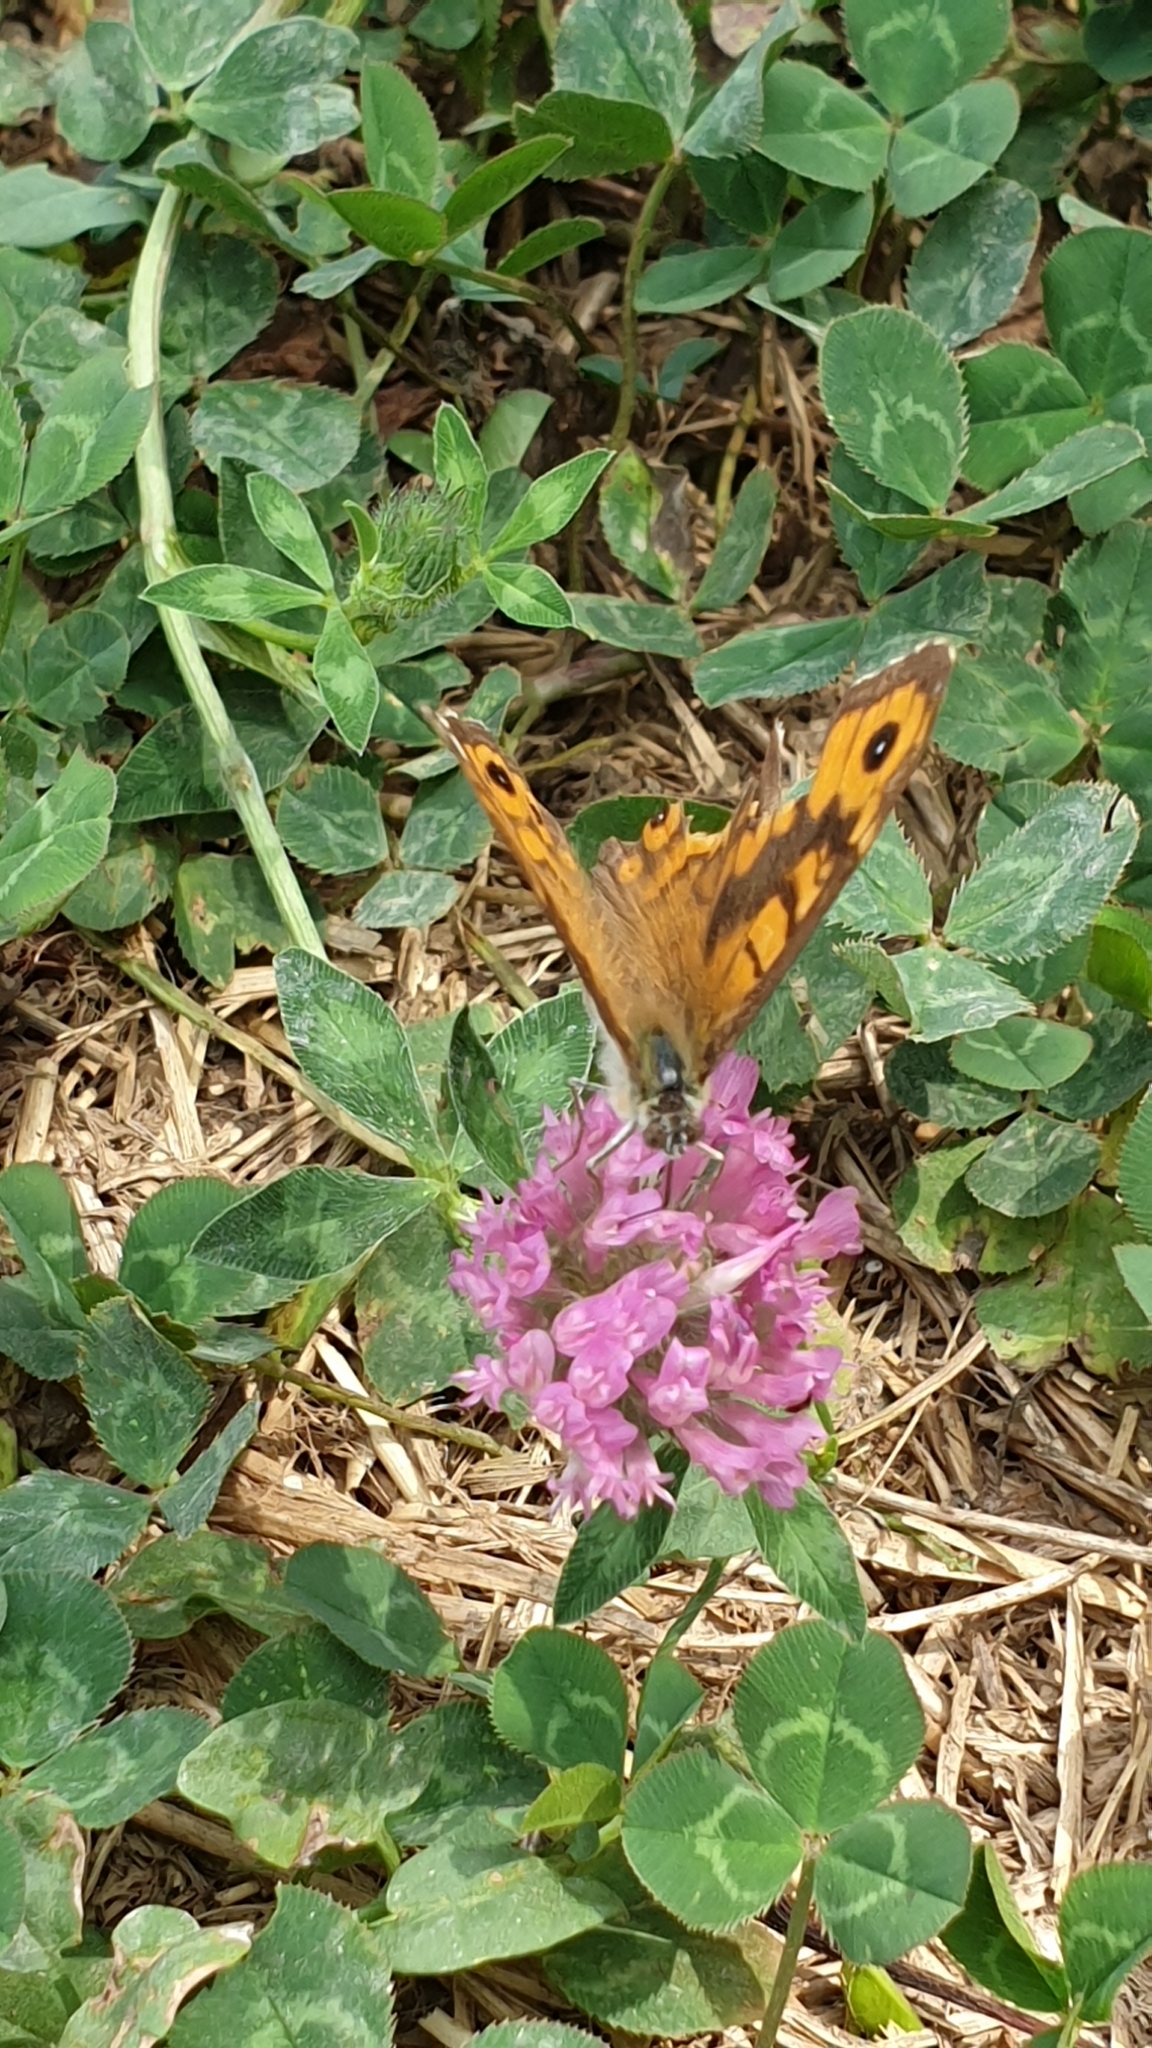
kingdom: Animalia
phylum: Arthropoda
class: Insecta
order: Lepidoptera
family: Nymphalidae
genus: Pararge
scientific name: Pararge Lasiommata megera
